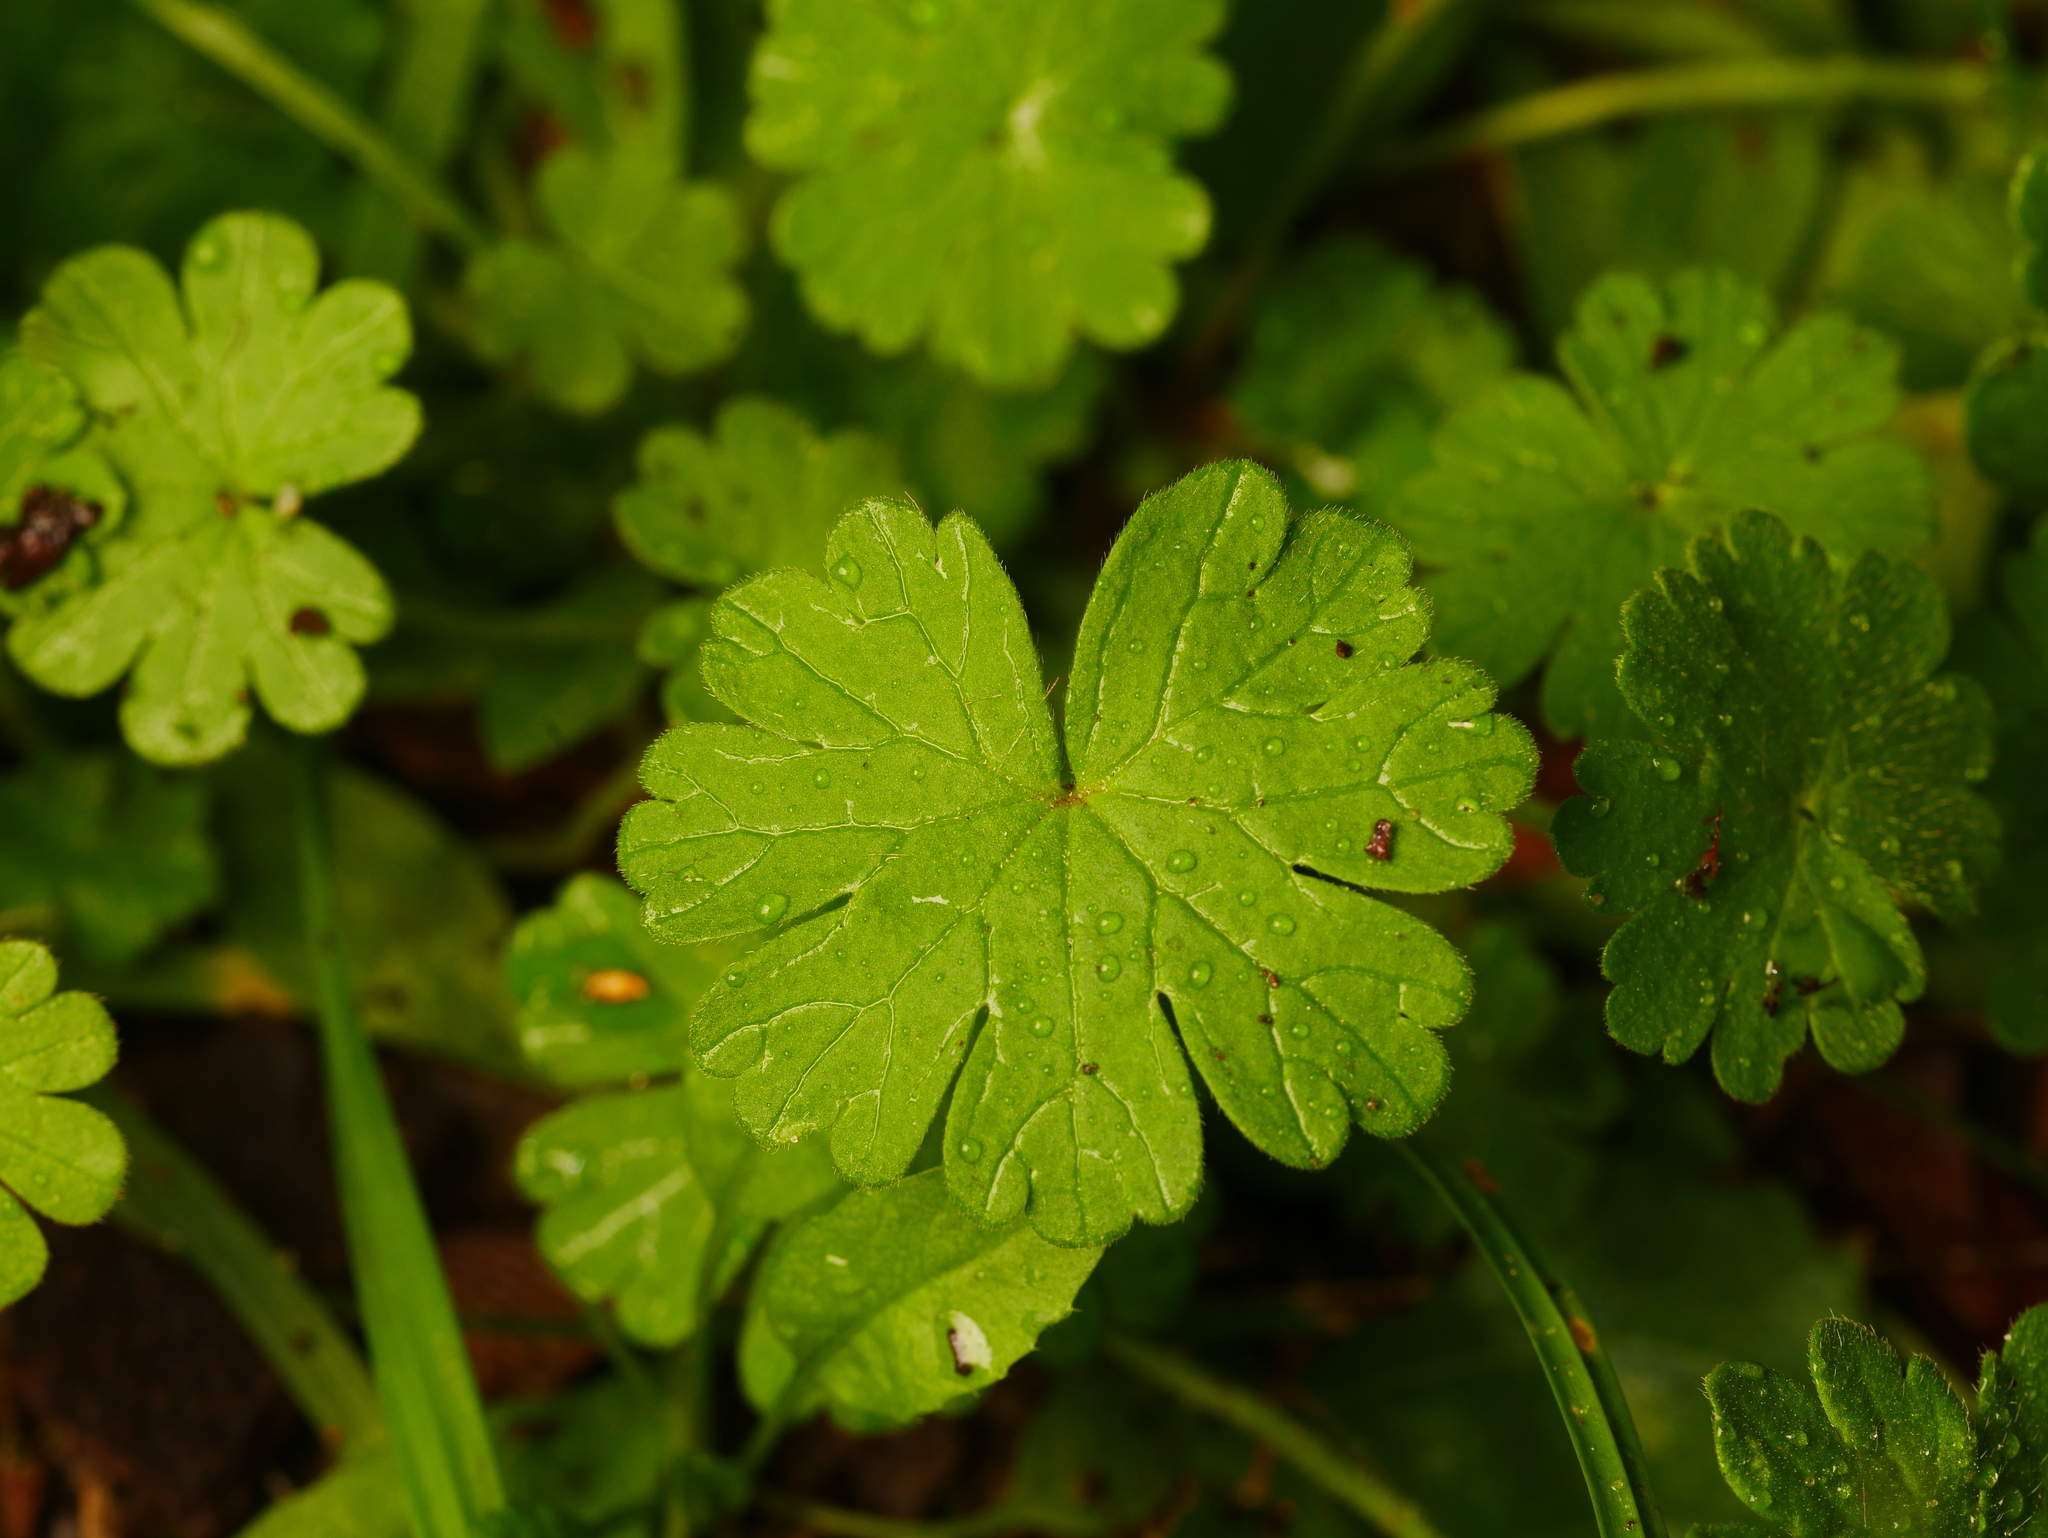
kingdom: Plantae
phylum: Tracheophyta
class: Magnoliopsida
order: Geraniales
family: Geraniaceae
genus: Geranium
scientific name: Geranium molle
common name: Dove's-foot crane's-bill
